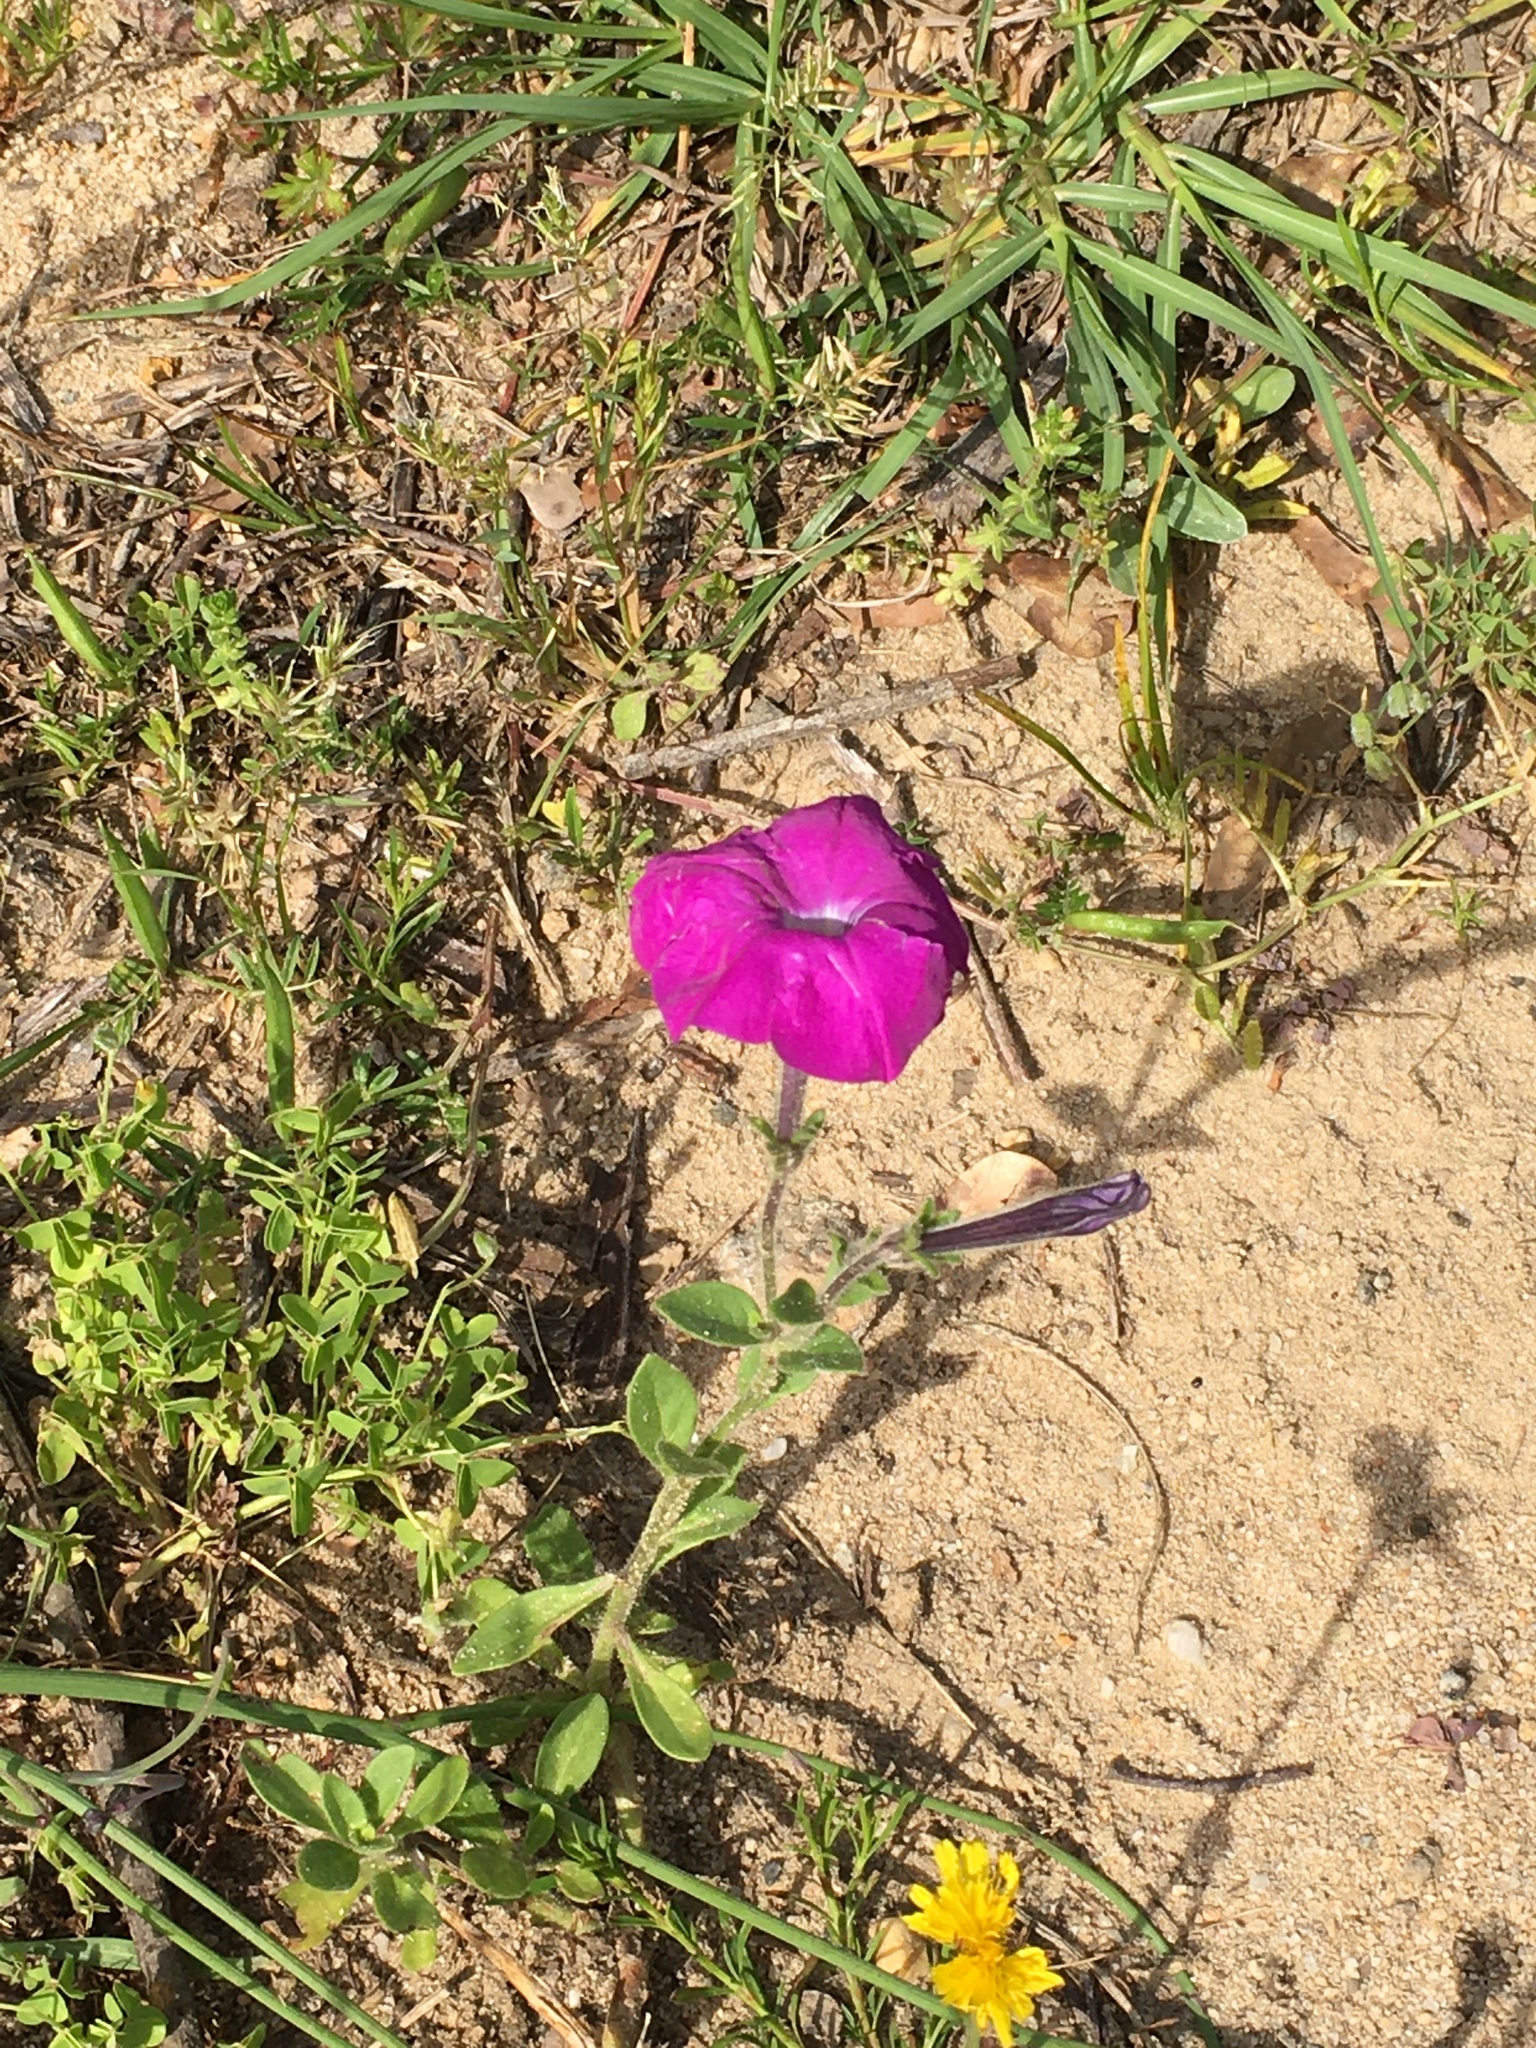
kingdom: Plantae
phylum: Tracheophyta
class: Magnoliopsida
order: Solanales
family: Solanaceae
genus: Petunia
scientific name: Petunia atkinsiana
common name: Petunia
